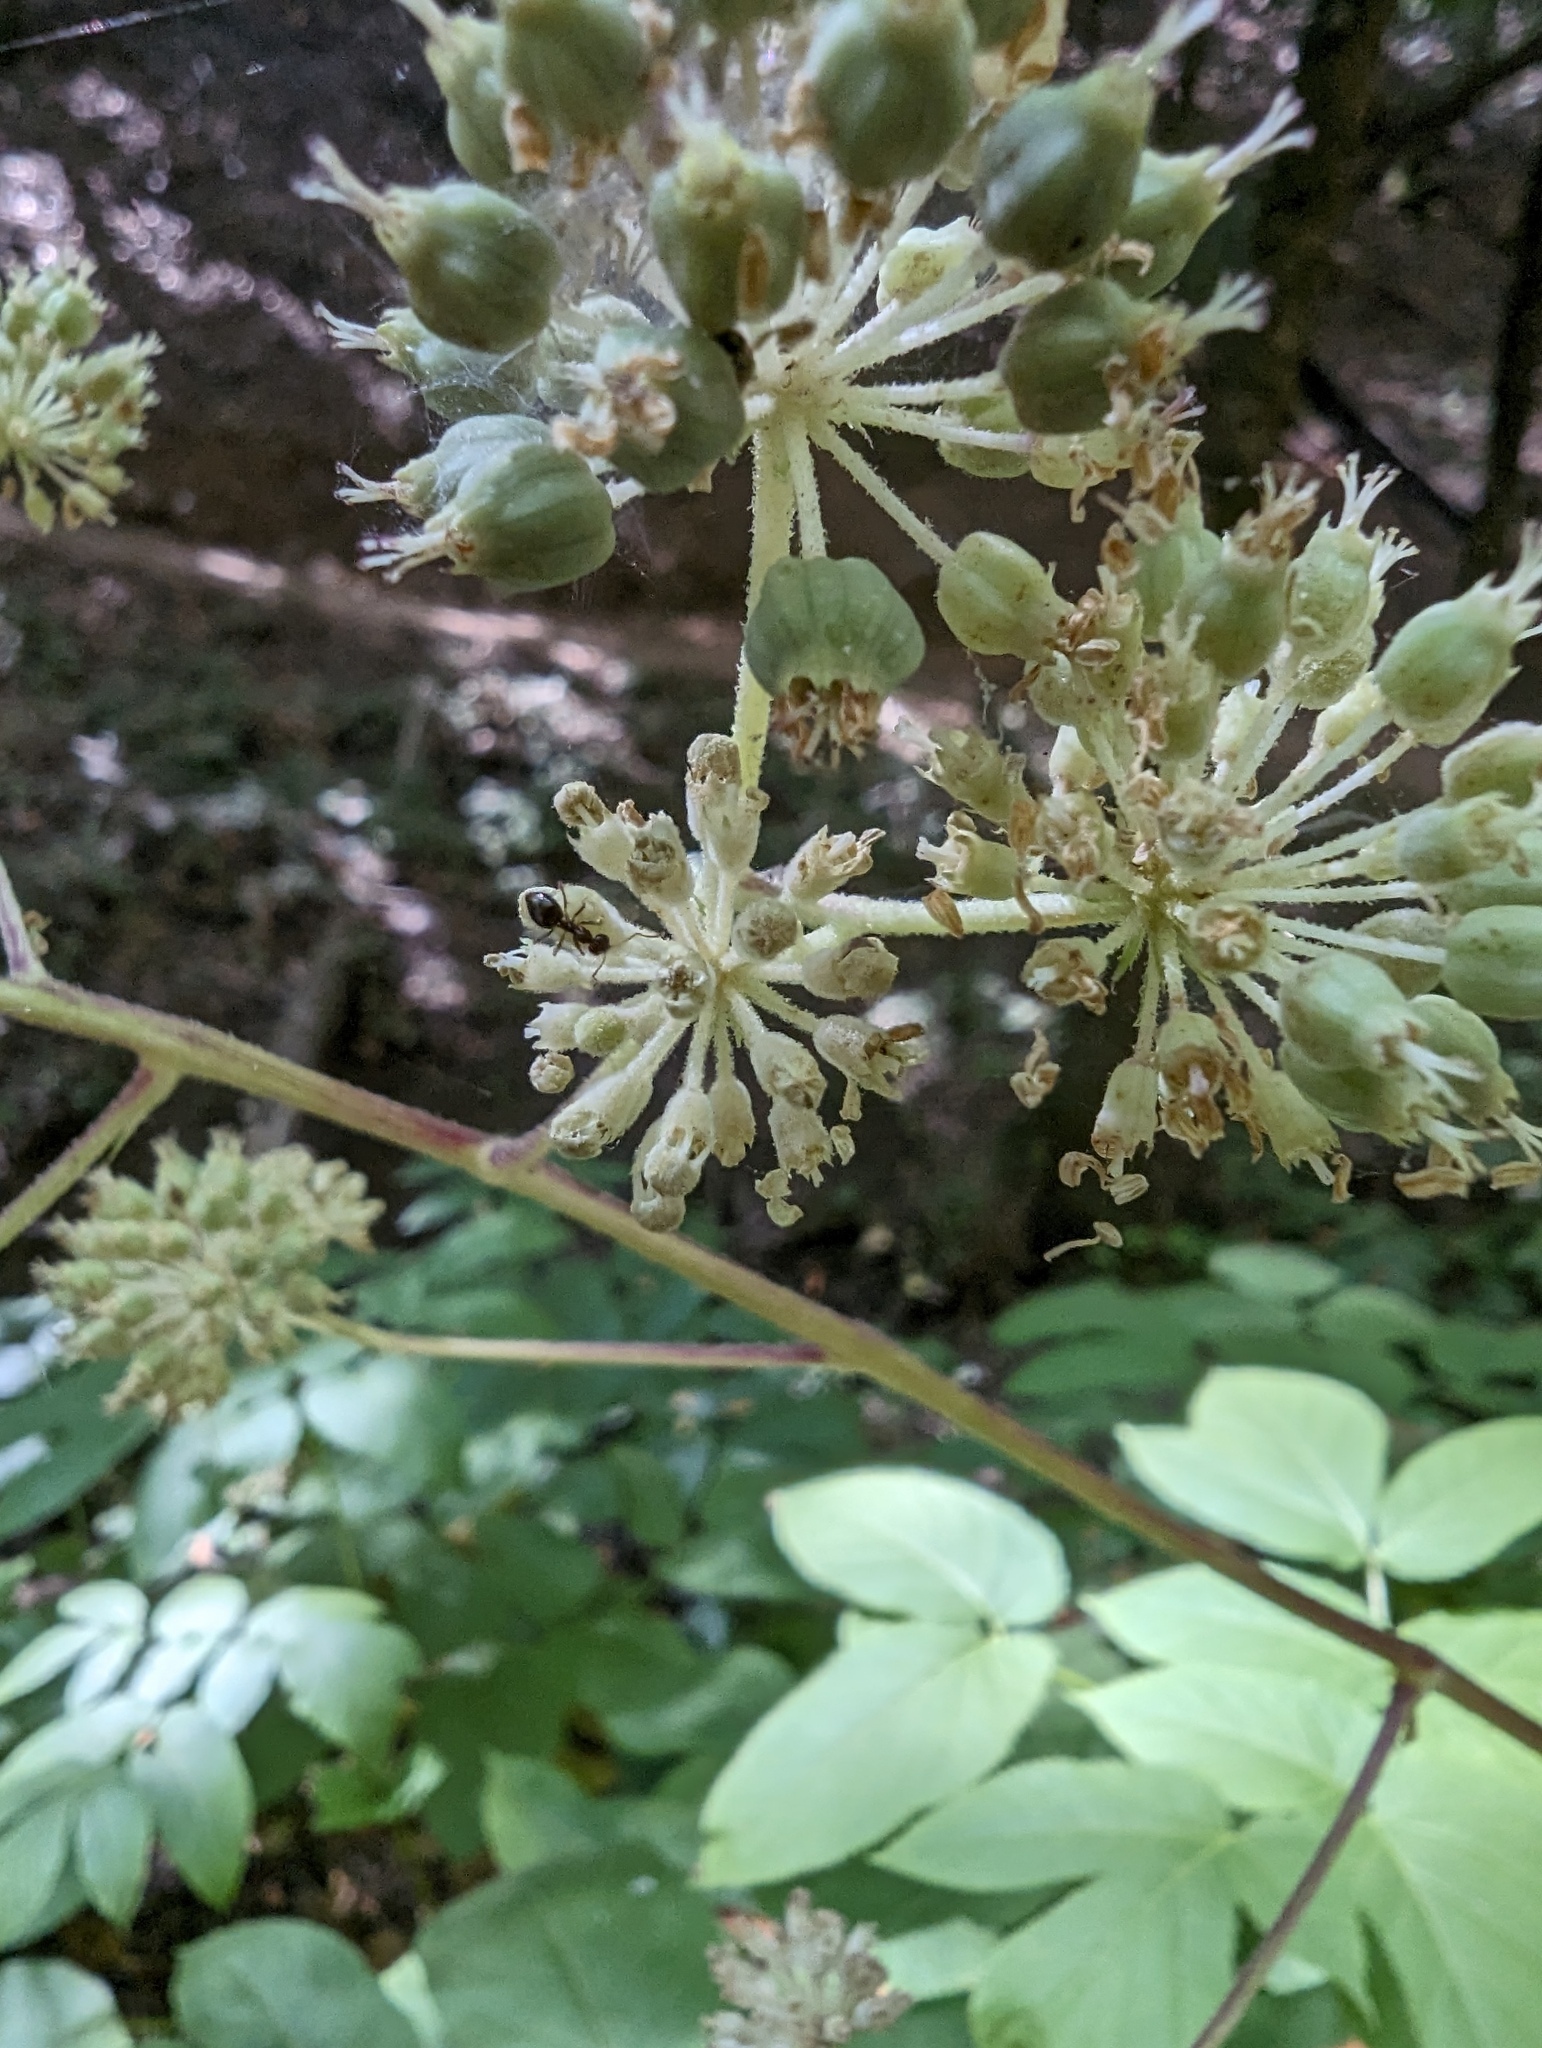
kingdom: Plantae
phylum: Tracheophyta
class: Magnoliopsida
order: Apiales
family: Araliaceae
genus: Aralia
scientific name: Aralia californica
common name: California-ginseng
